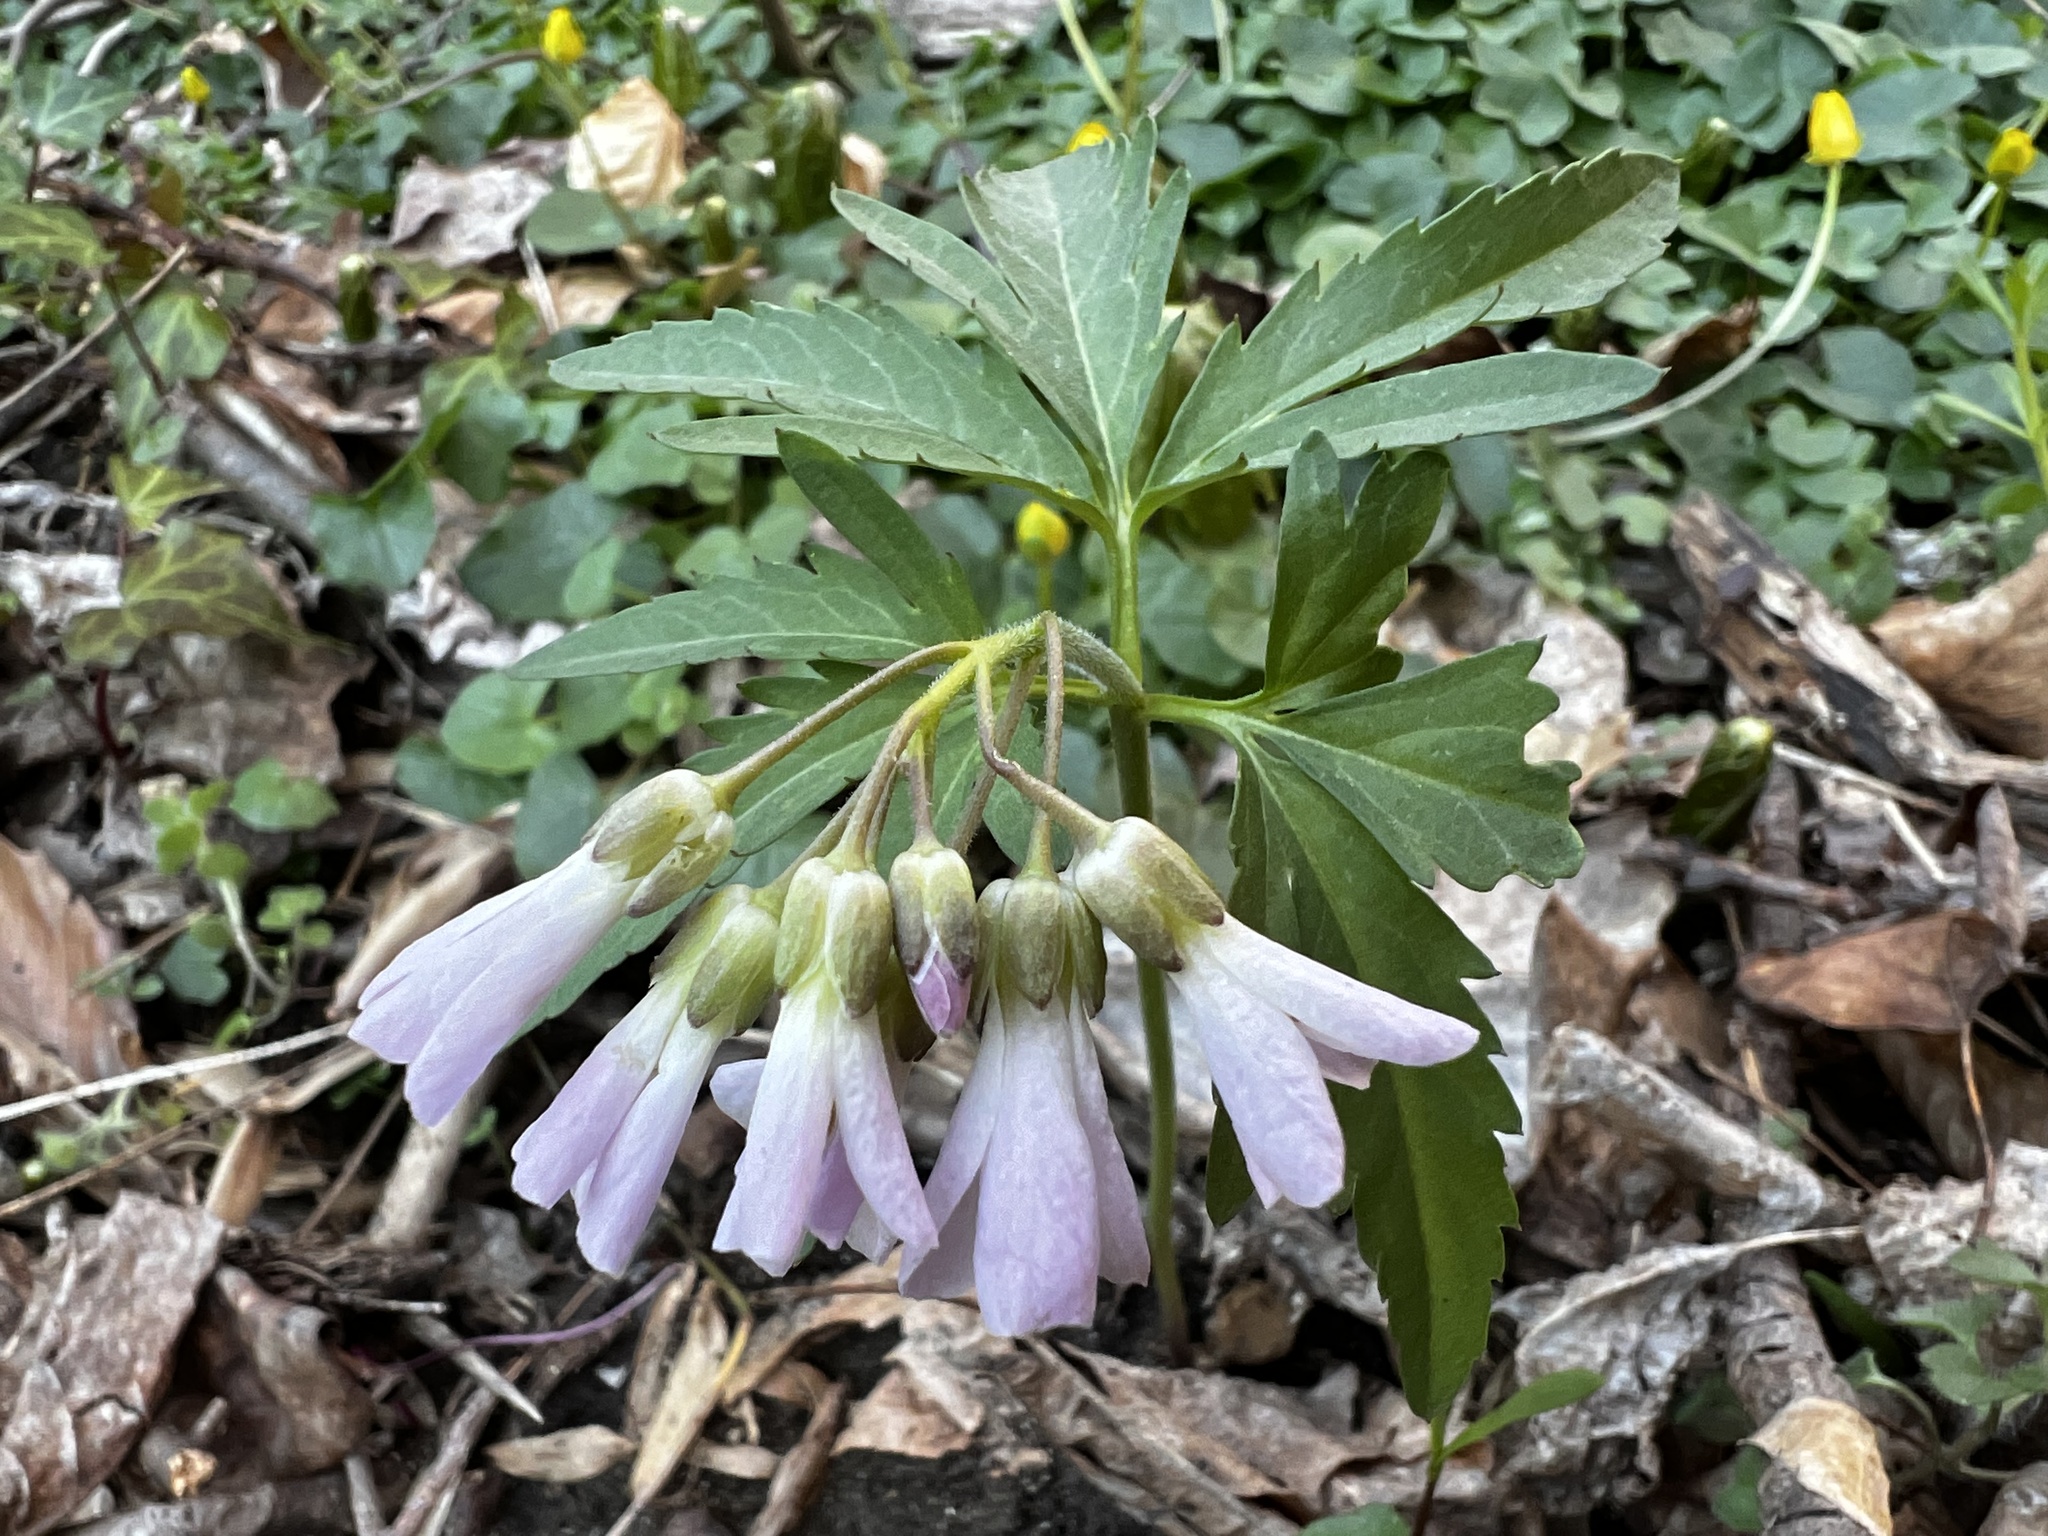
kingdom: Plantae
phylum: Tracheophyta
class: Magnoliopsida
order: Brassicales
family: Brassicaceae
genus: Cardamine
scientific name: Cardamine concatenata
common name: Cut-leaf toothcup
